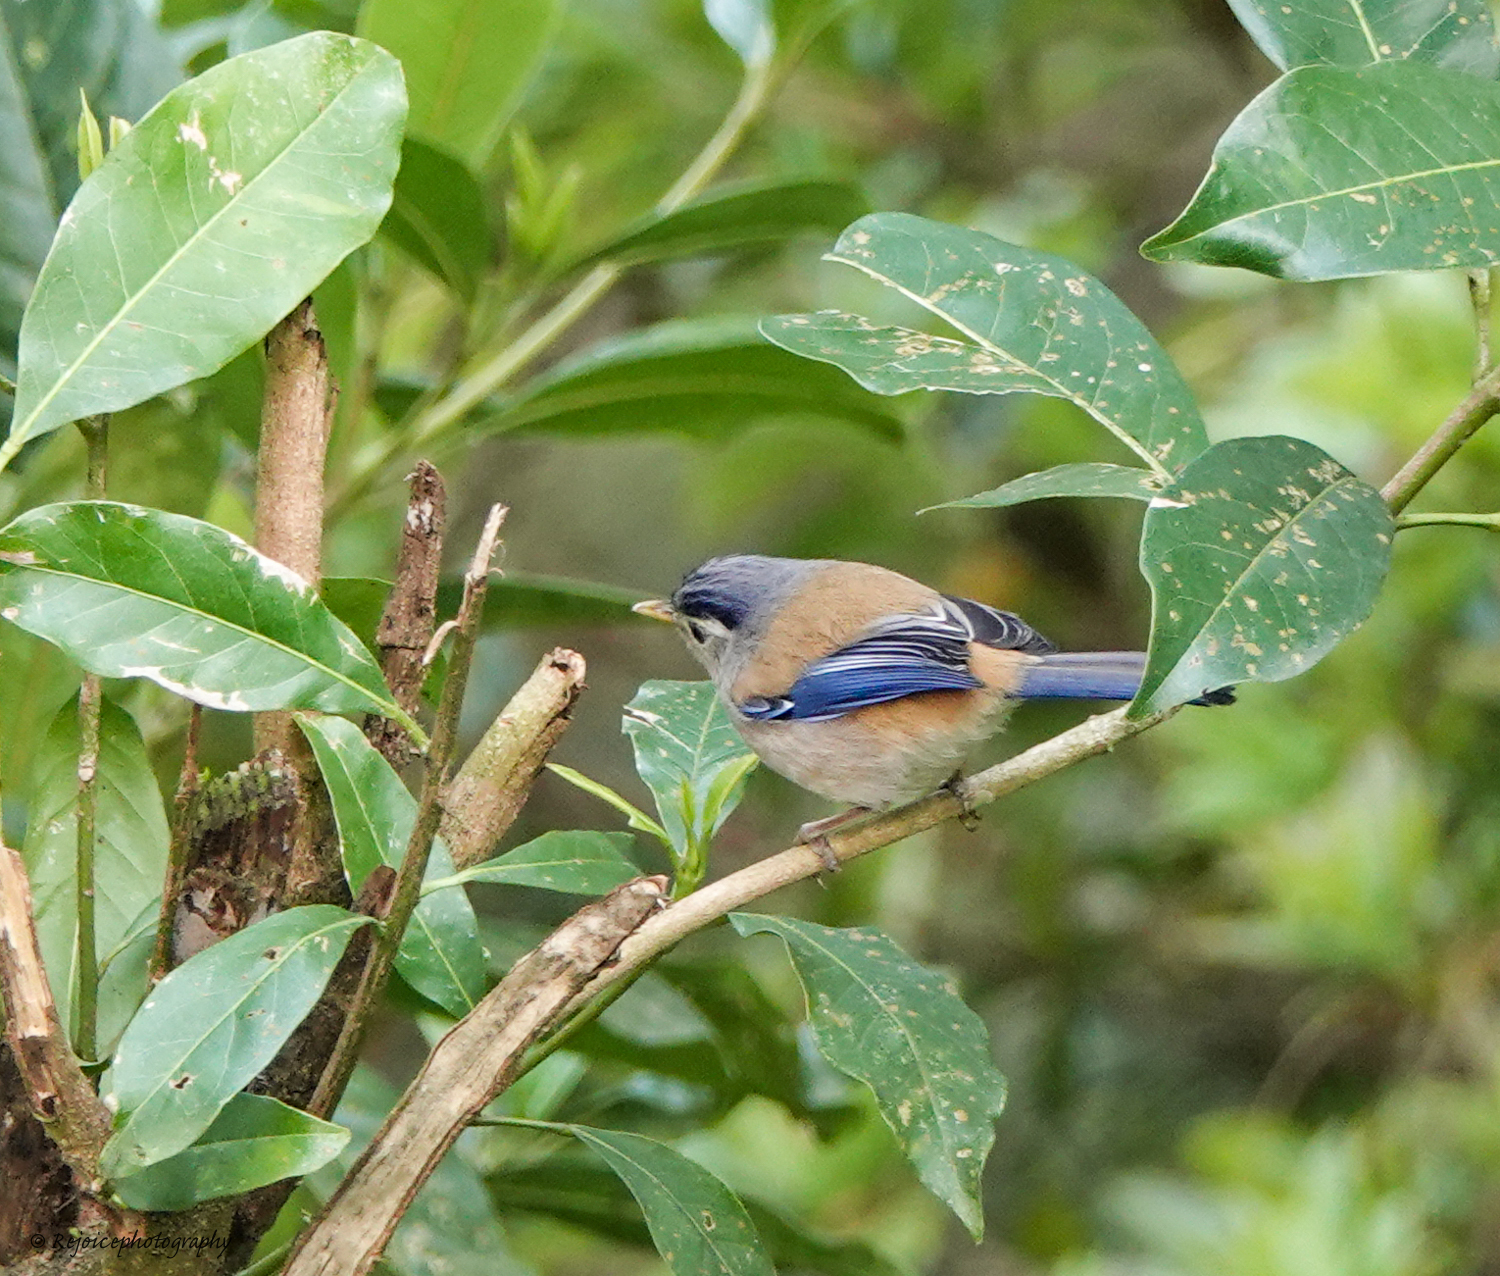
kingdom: Animalia
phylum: Chordata
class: Aves
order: Passeriformes
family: Leiothrichidae
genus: Minla
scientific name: Minla cyanouroptera
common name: Blue-winged minla
